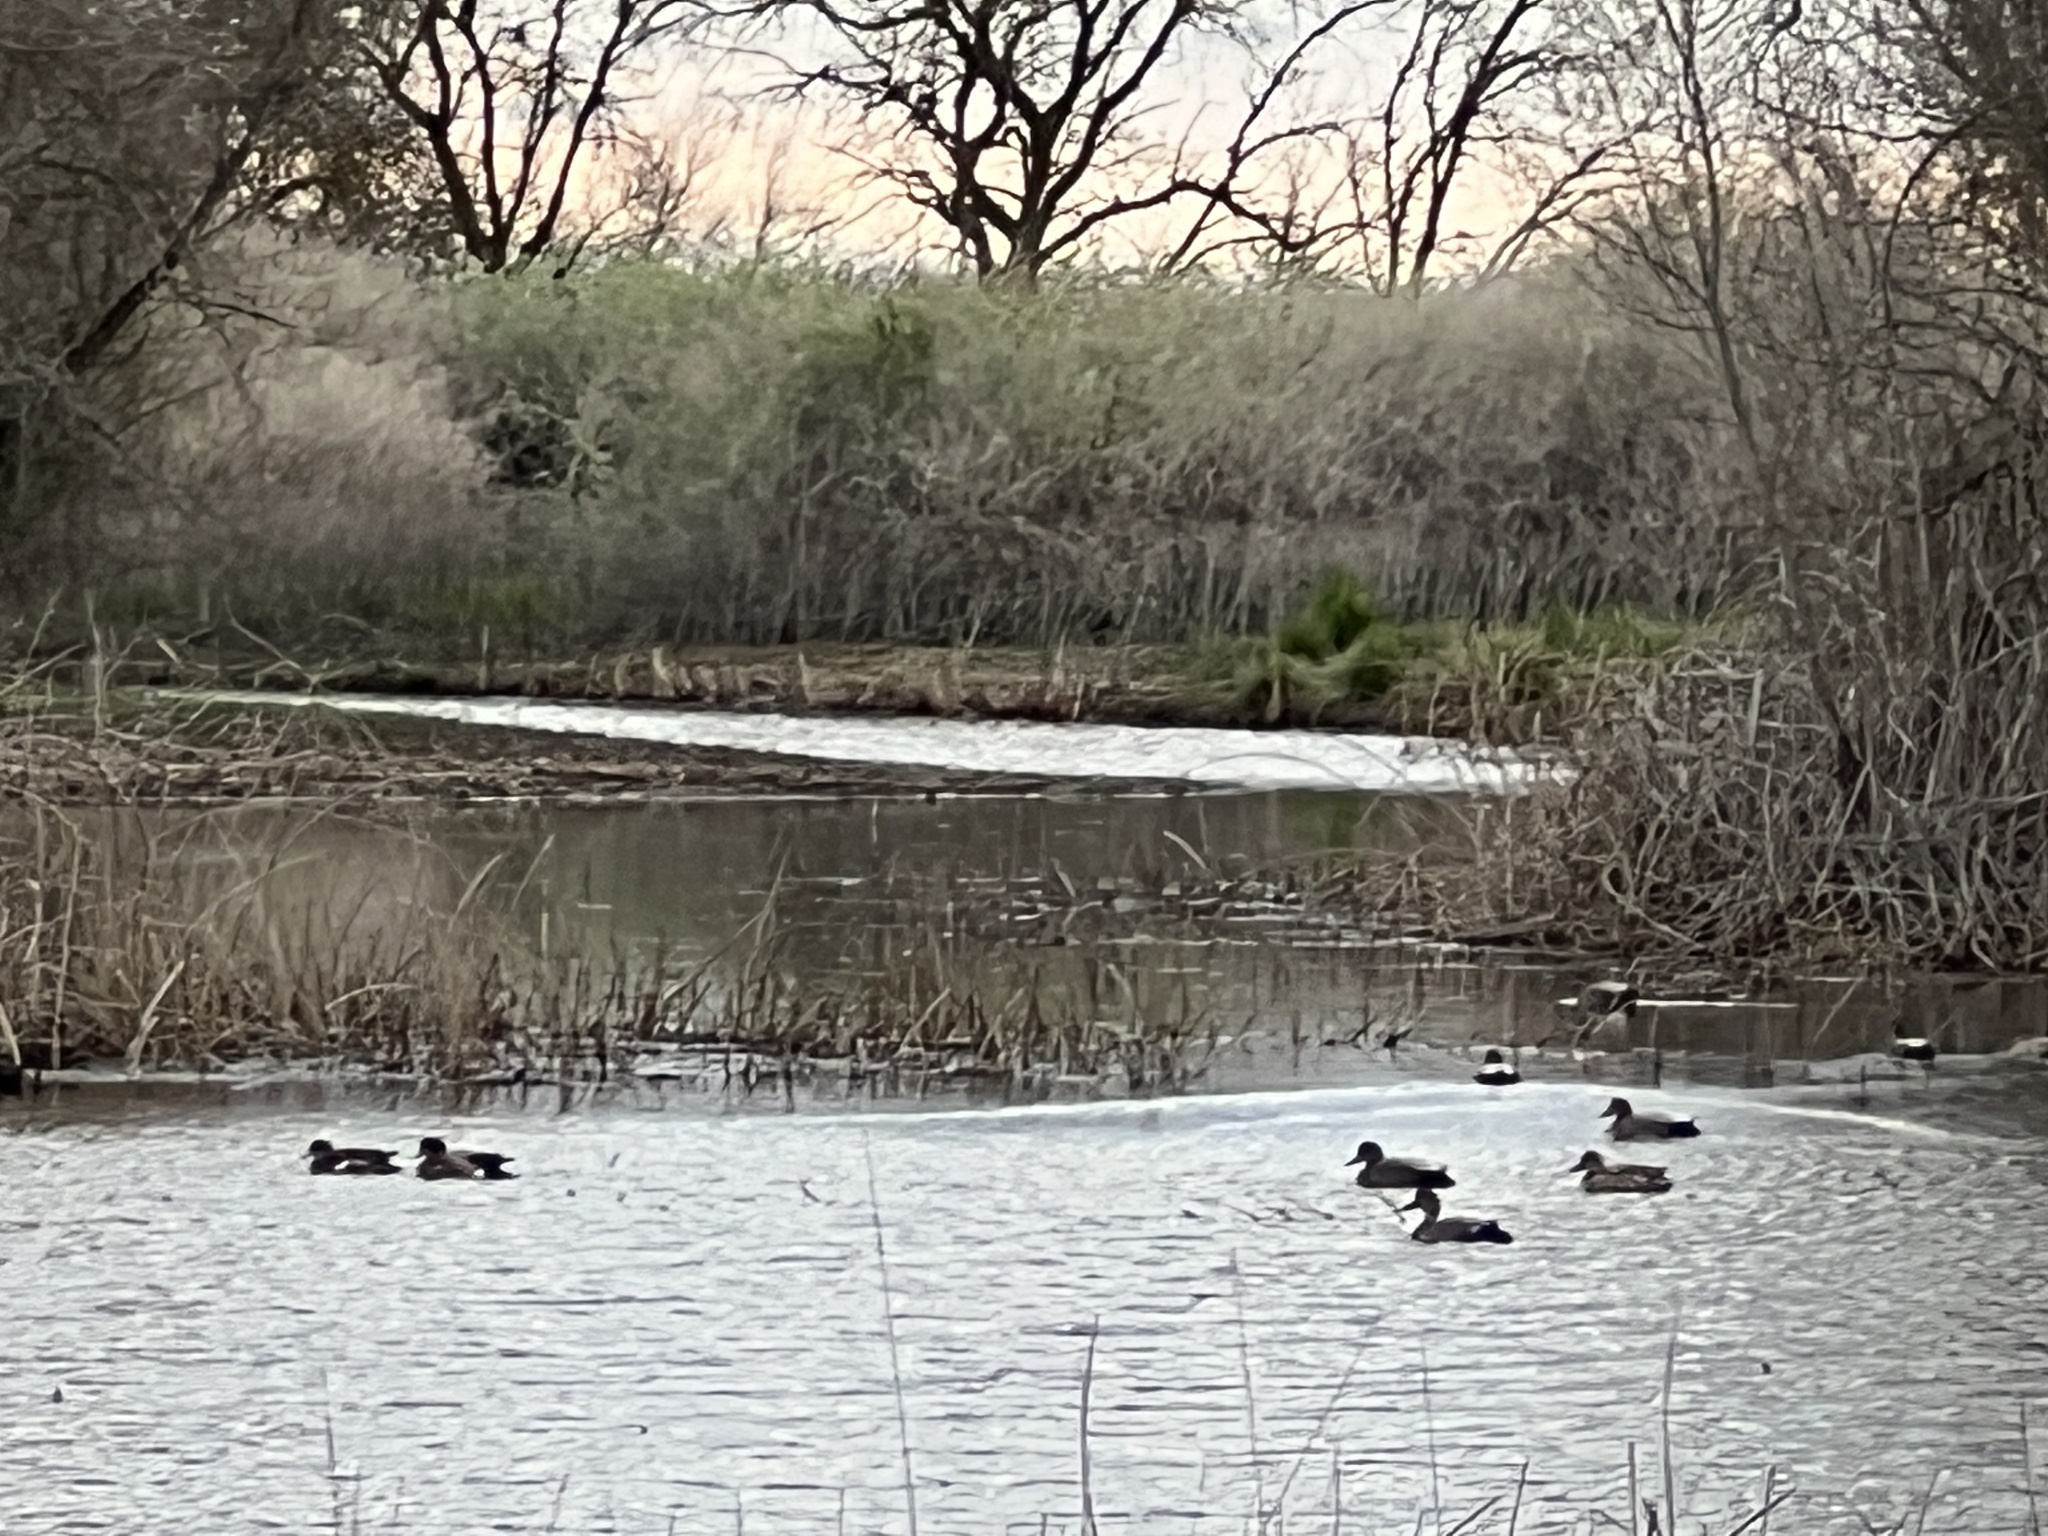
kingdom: Animalia
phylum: Chordata
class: Aves
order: Anseriformes
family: Anatidae
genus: Mareca
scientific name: Mareca strepera
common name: Gadwall
